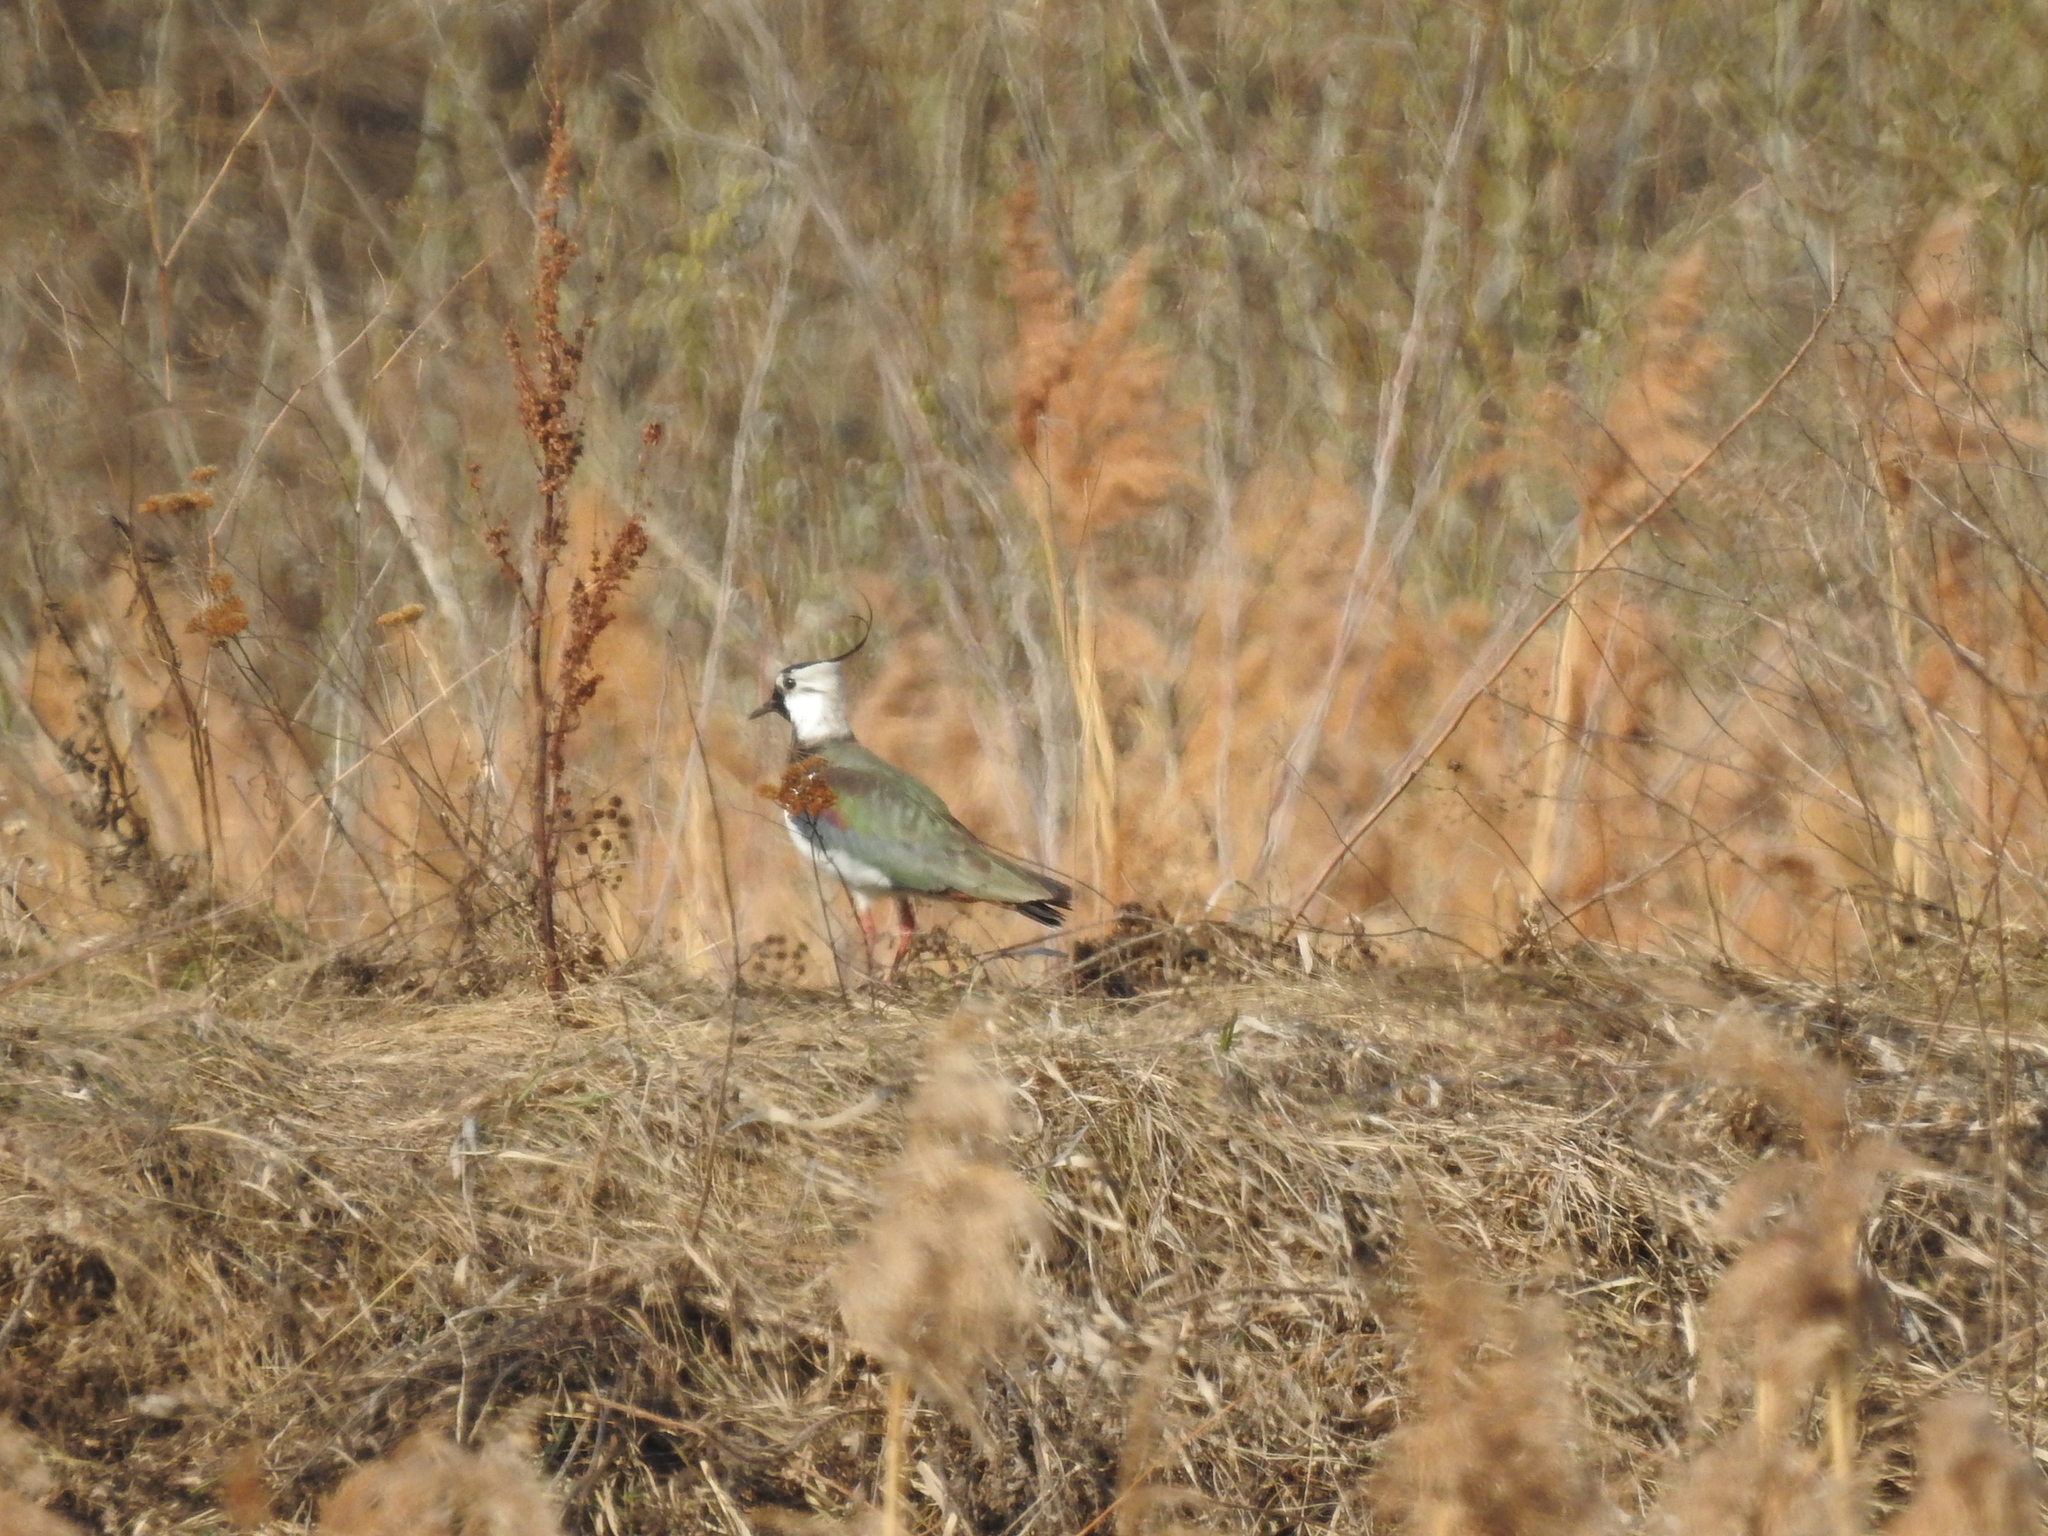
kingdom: Animalia
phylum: Chordata
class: Aves
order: Charadriiformes
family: Charadriidae
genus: Vanellus
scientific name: Vanellus vanellus
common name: Northern lapwing
